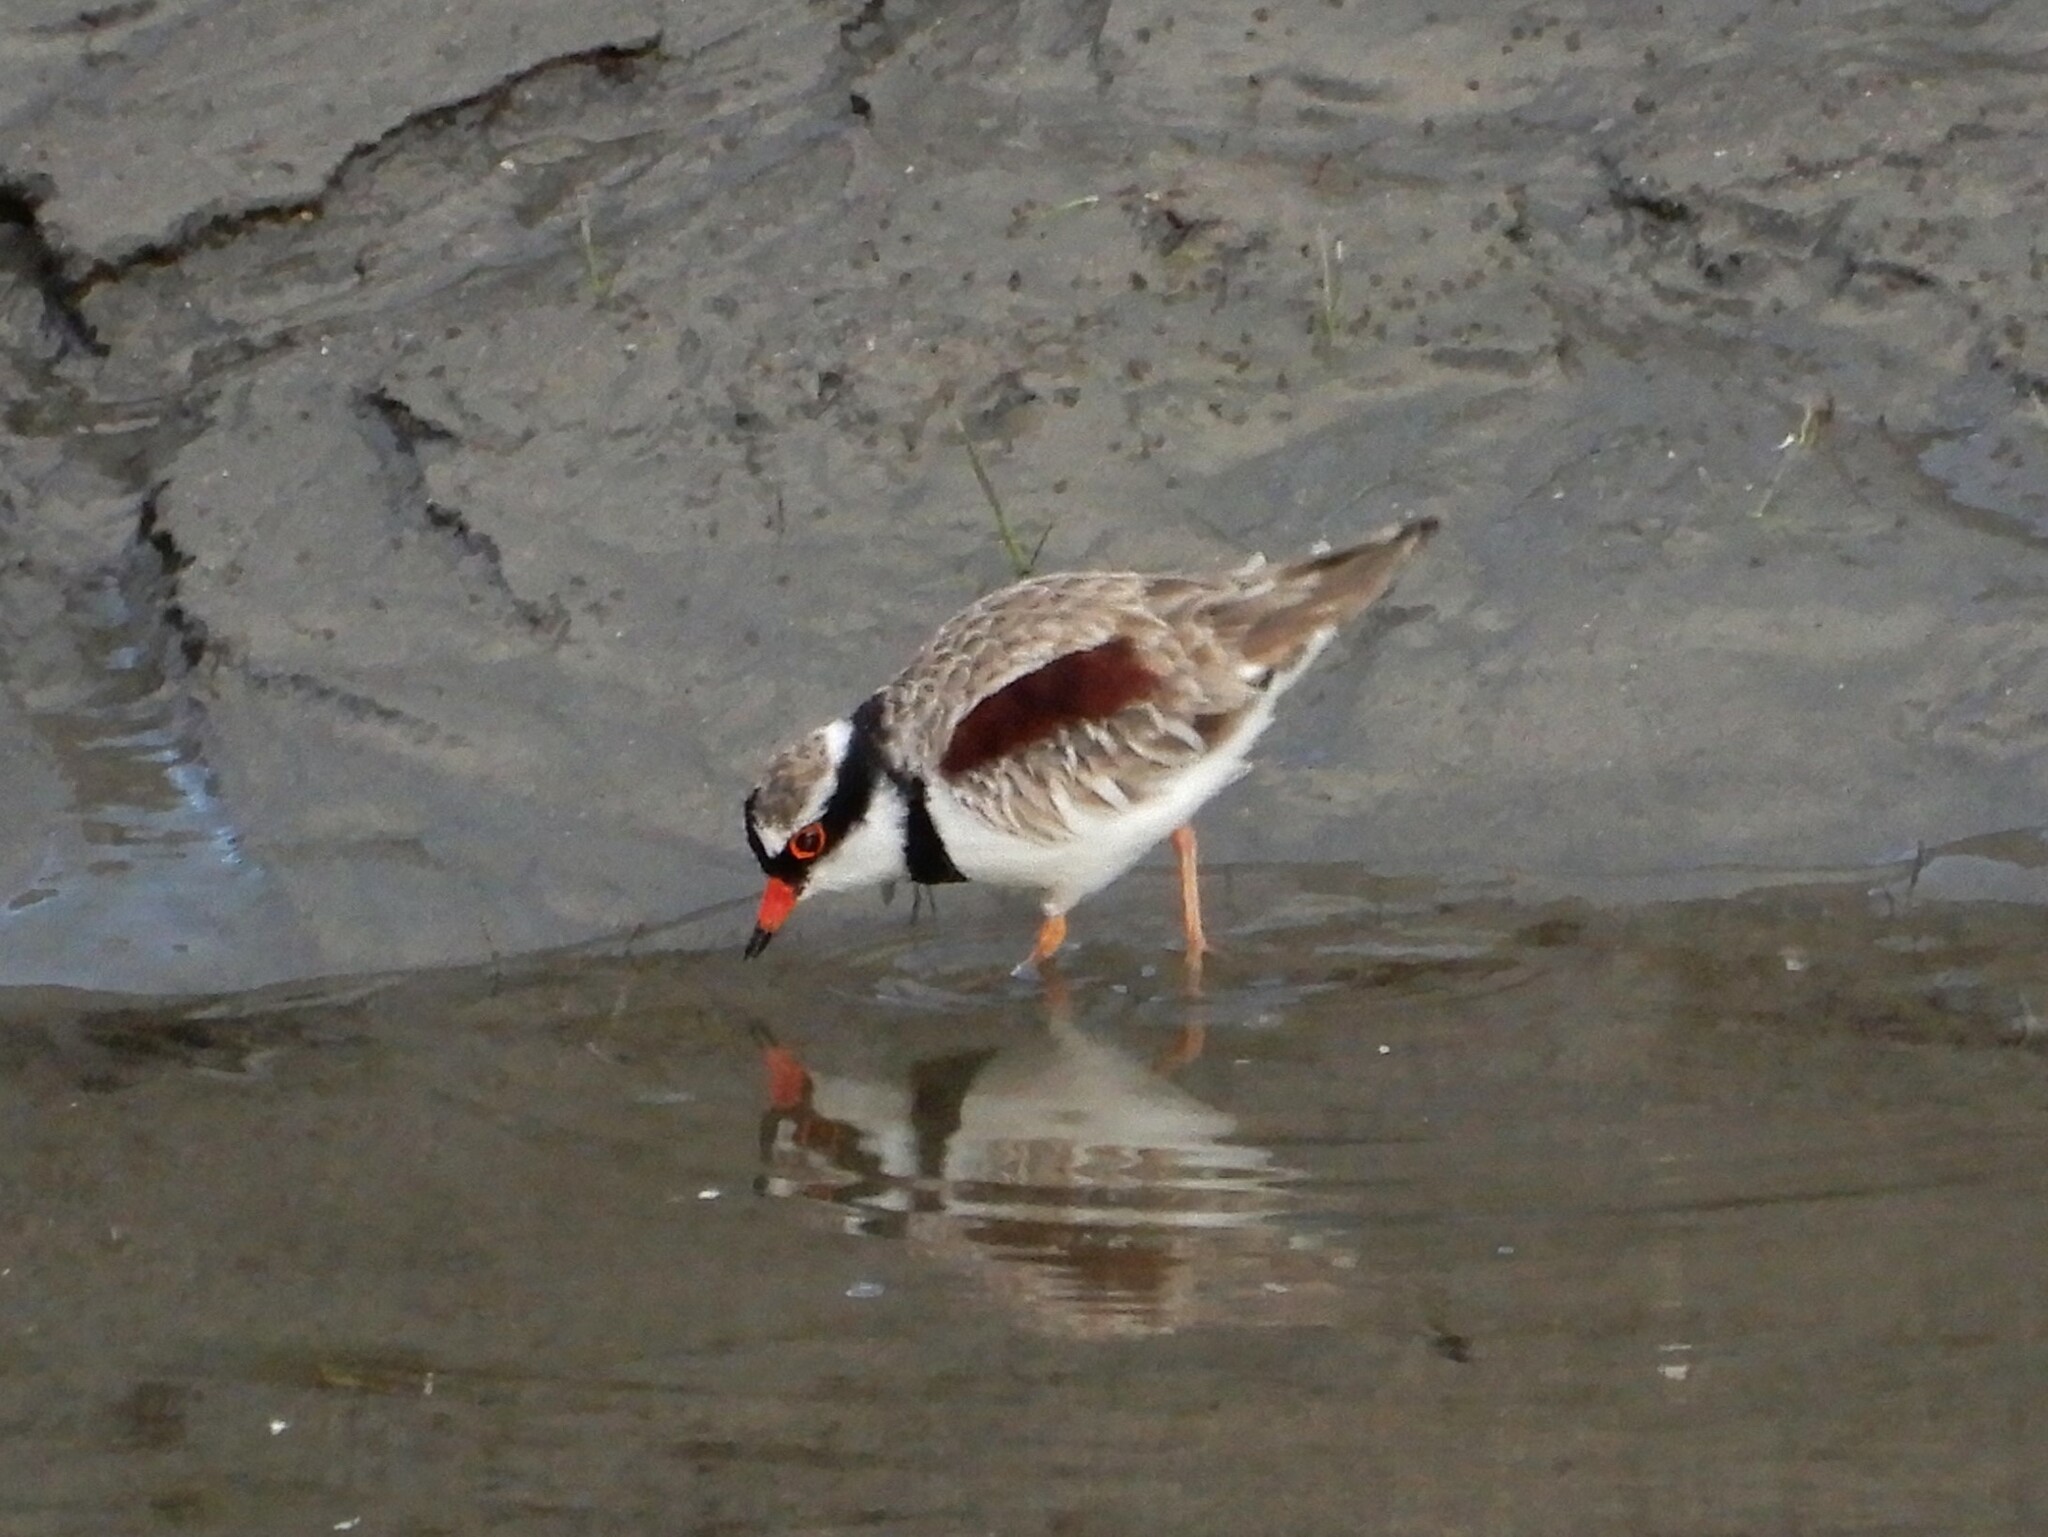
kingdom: Animalia
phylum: Chordata
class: Aves
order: Charadriiformes
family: Charadriidae
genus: Elseyornis
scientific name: Elseyornis melanops
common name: Black-fronted dotterel
